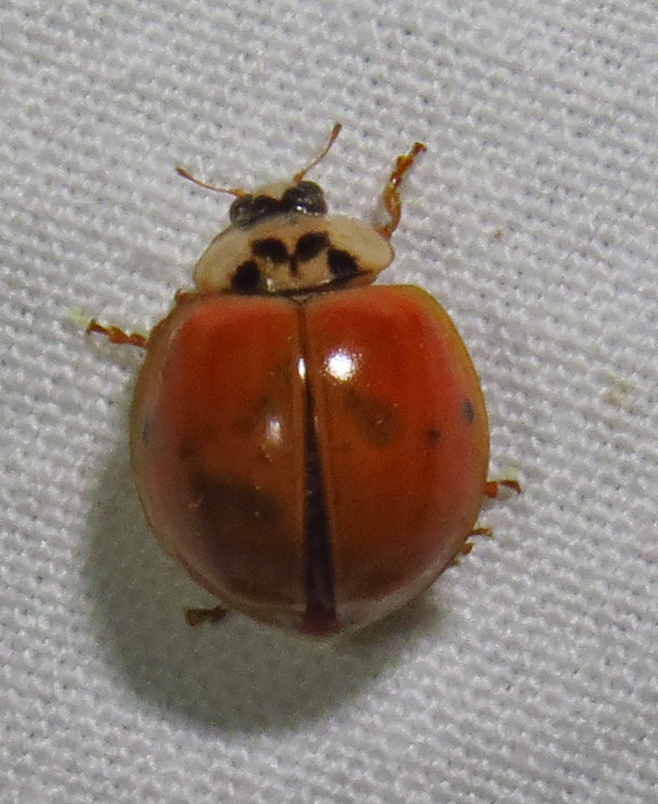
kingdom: Animalia
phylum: Arthropoda
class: Insecta
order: Coleoptera
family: Coccinellidae
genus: Harmonia
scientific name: Harmonia axyridis
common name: Harlequin ladybird
